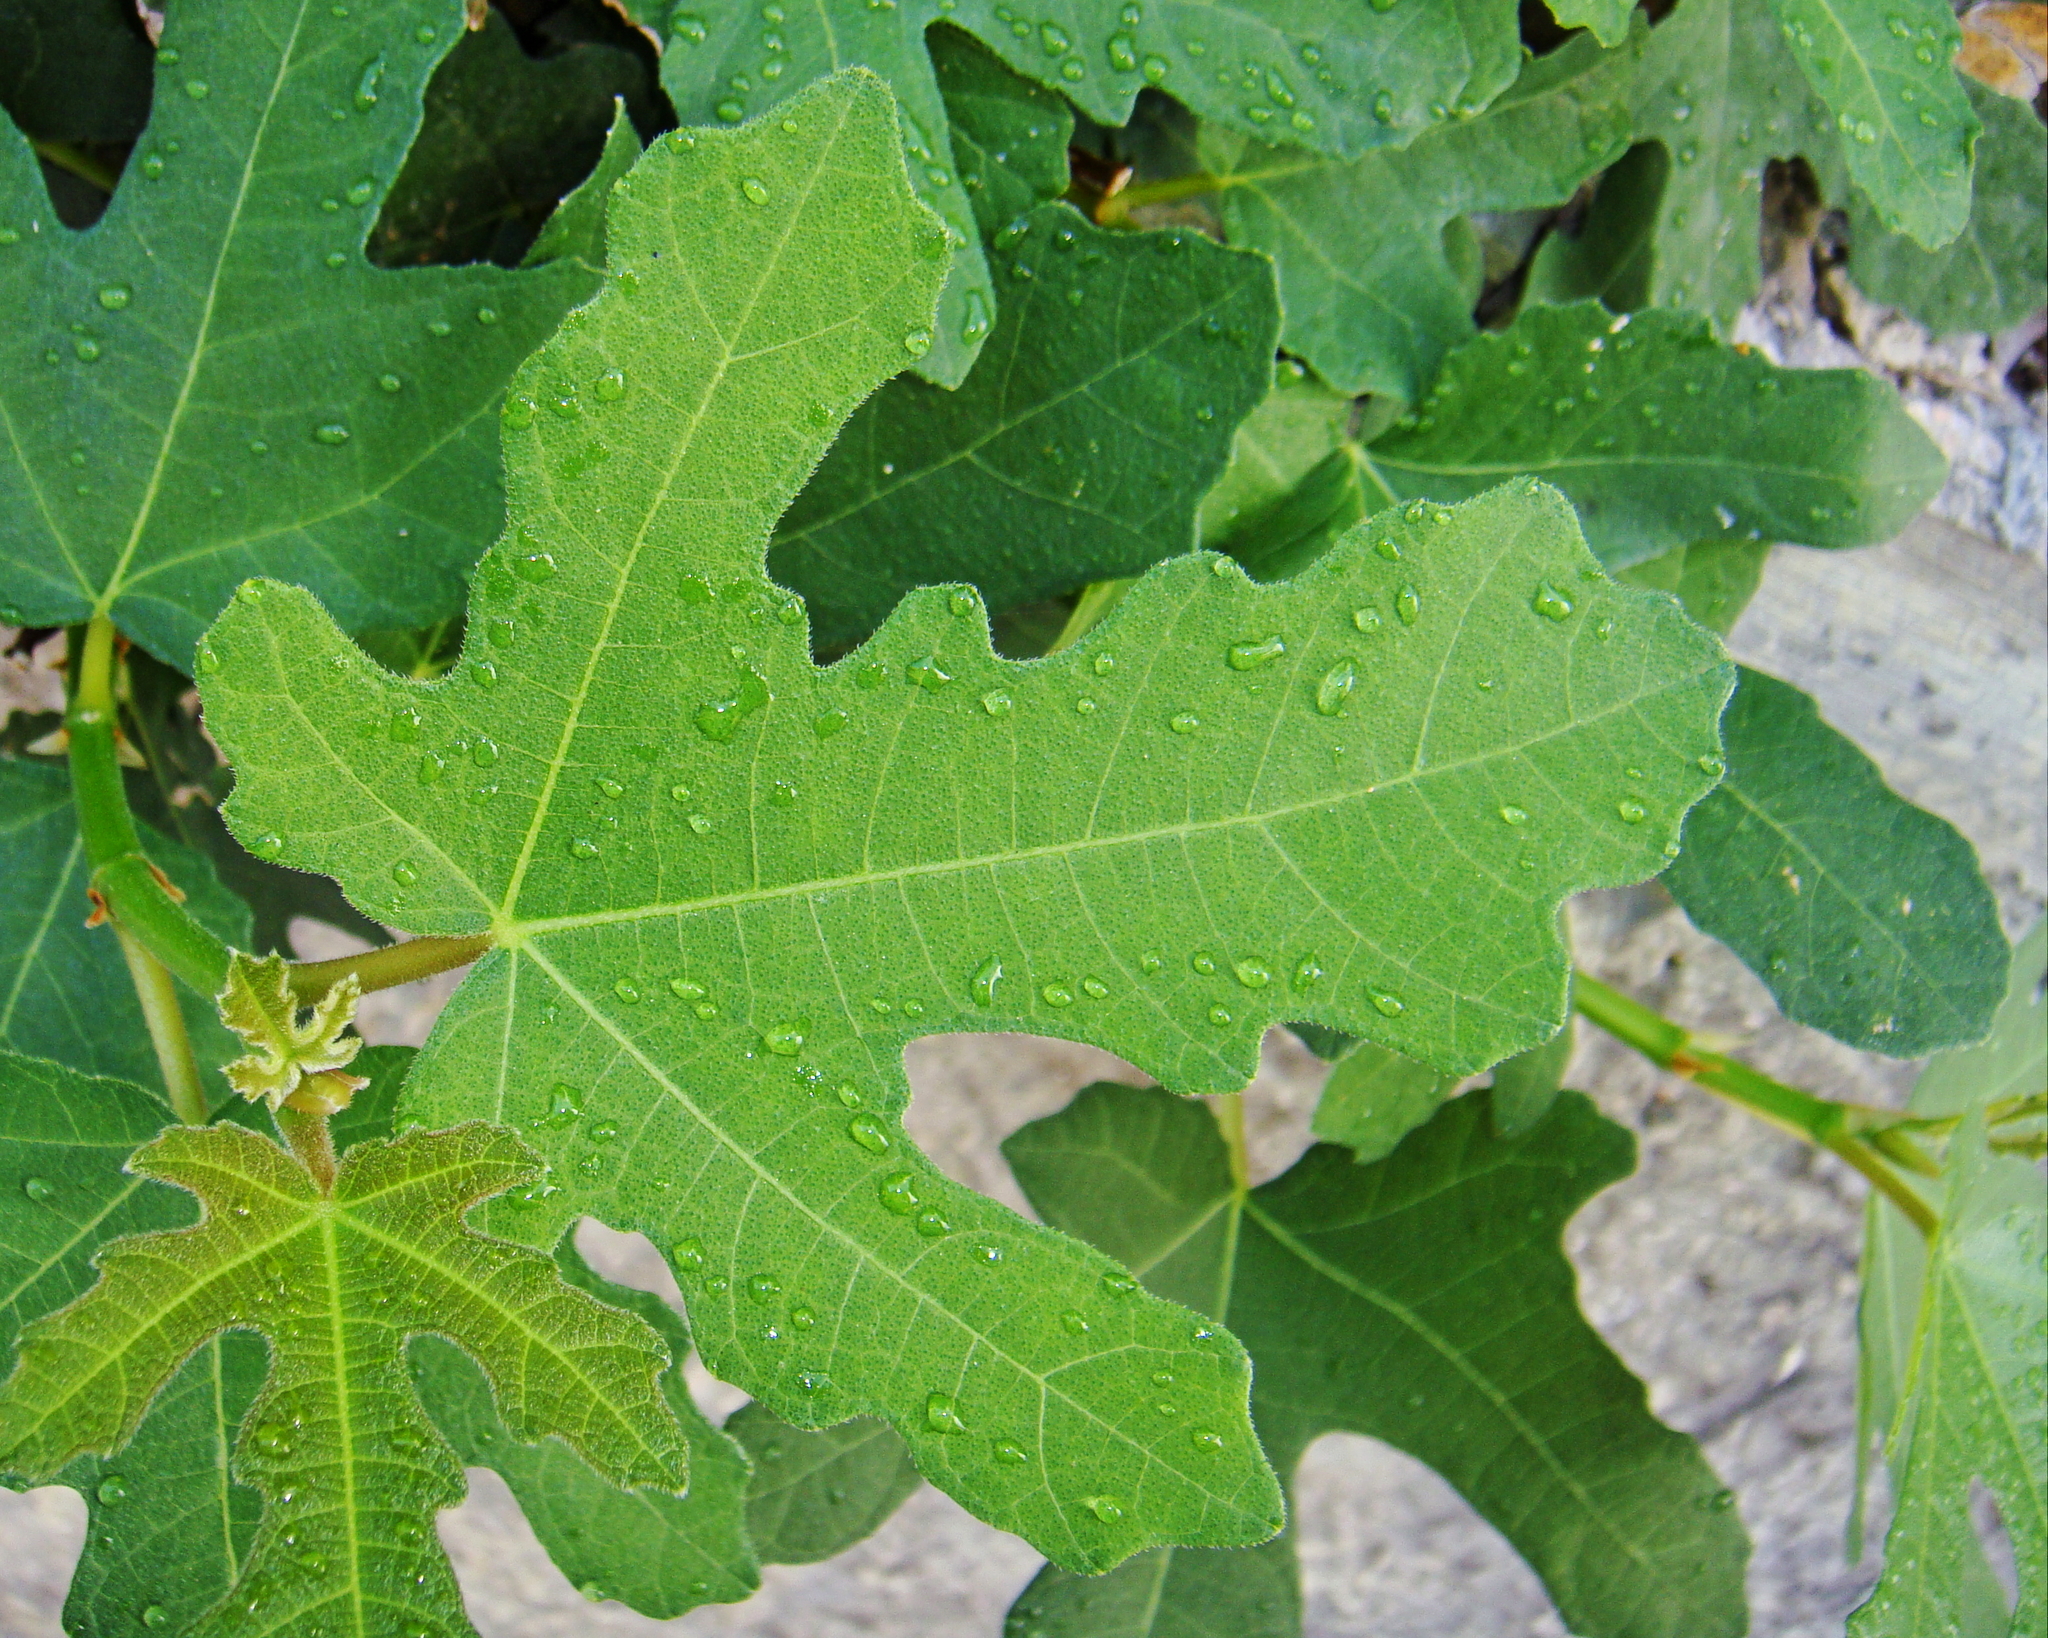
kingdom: Plantae
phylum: Tracheophyta
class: Magnoliopsida
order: Rosales
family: Moraceae
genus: Ficus
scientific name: Ficus carica
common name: Fig
